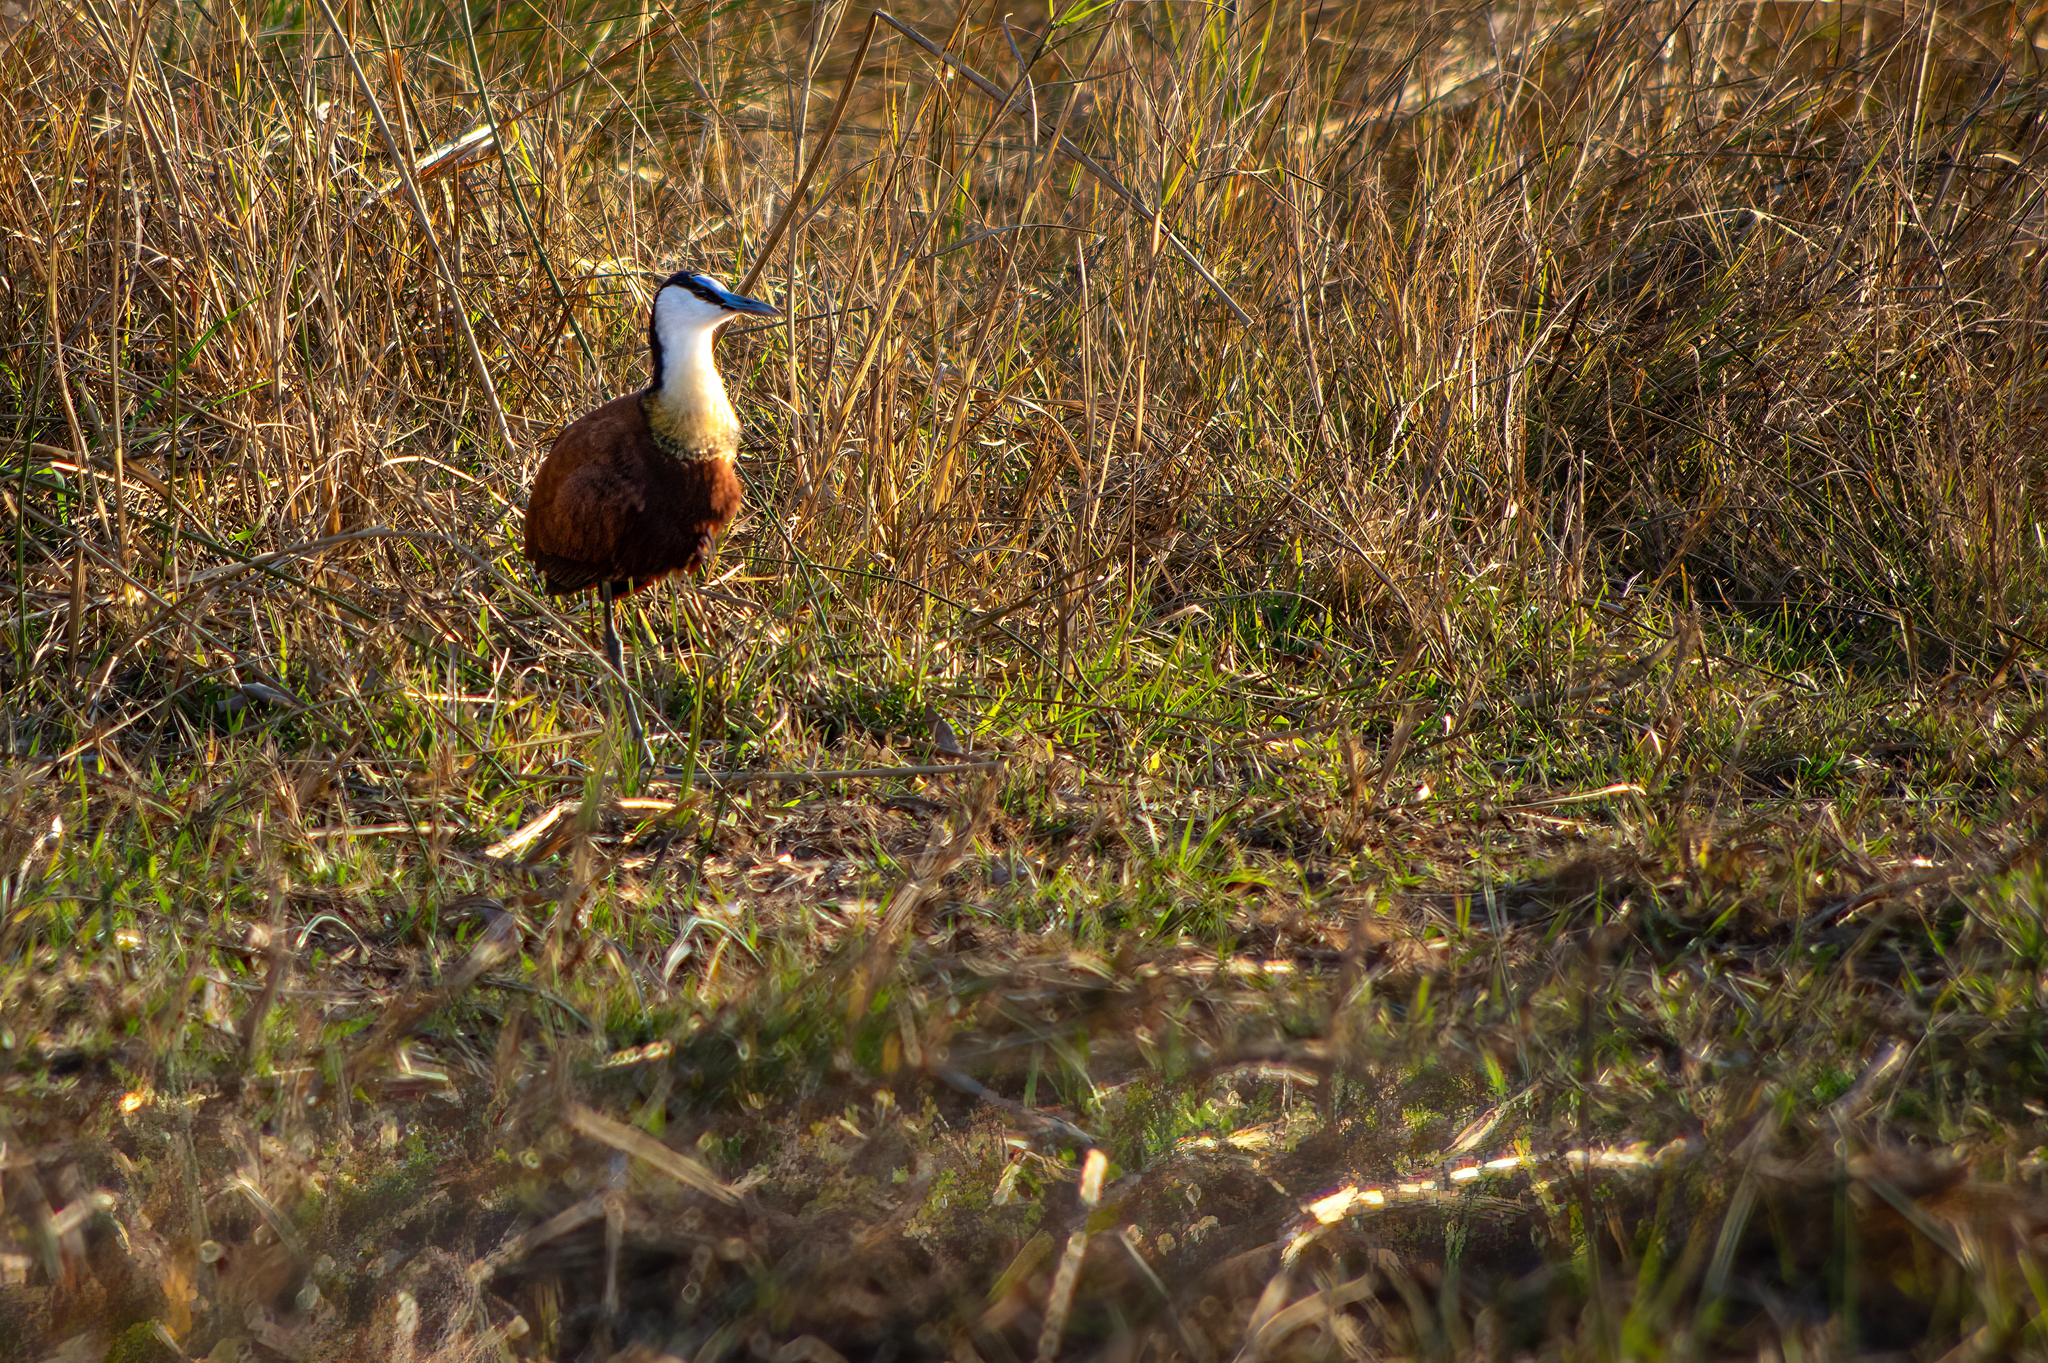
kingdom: Animalia
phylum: Chordata
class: Aves
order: Charadriiformes
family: Jacanidae
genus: Actophilornis
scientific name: Actophilornis africanus
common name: African jacana
